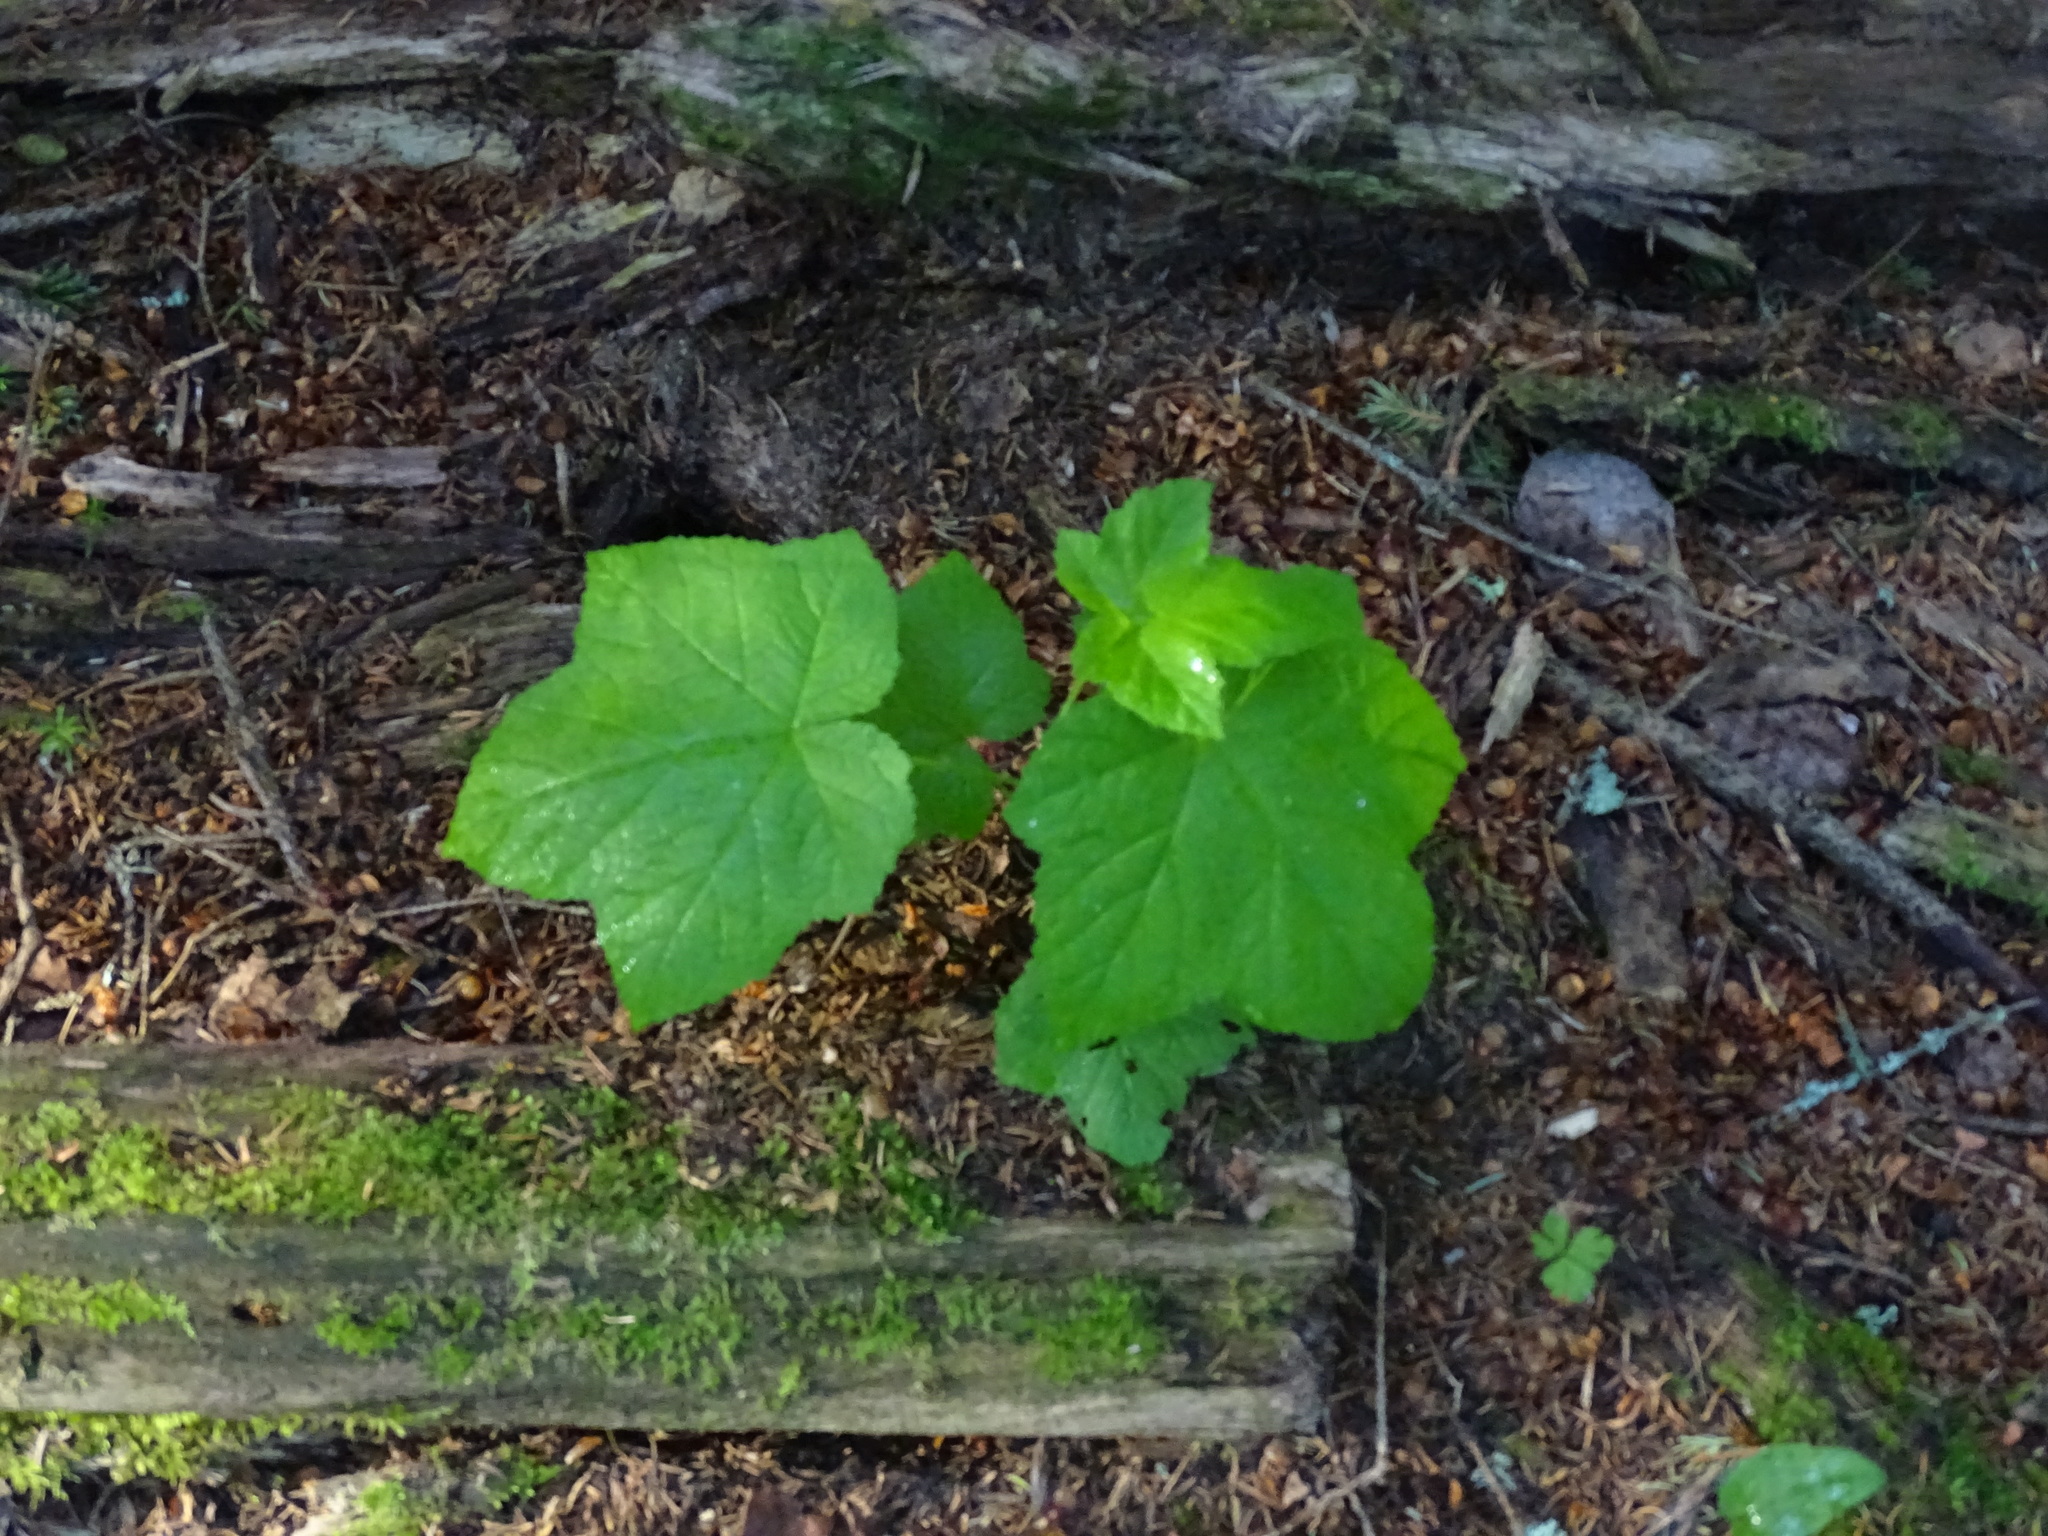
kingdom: Plantae
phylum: Tracheophyta
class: Magnoliopsida
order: Rosales
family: Rosaceae
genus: Rubus
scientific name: Rubus parviflorus
